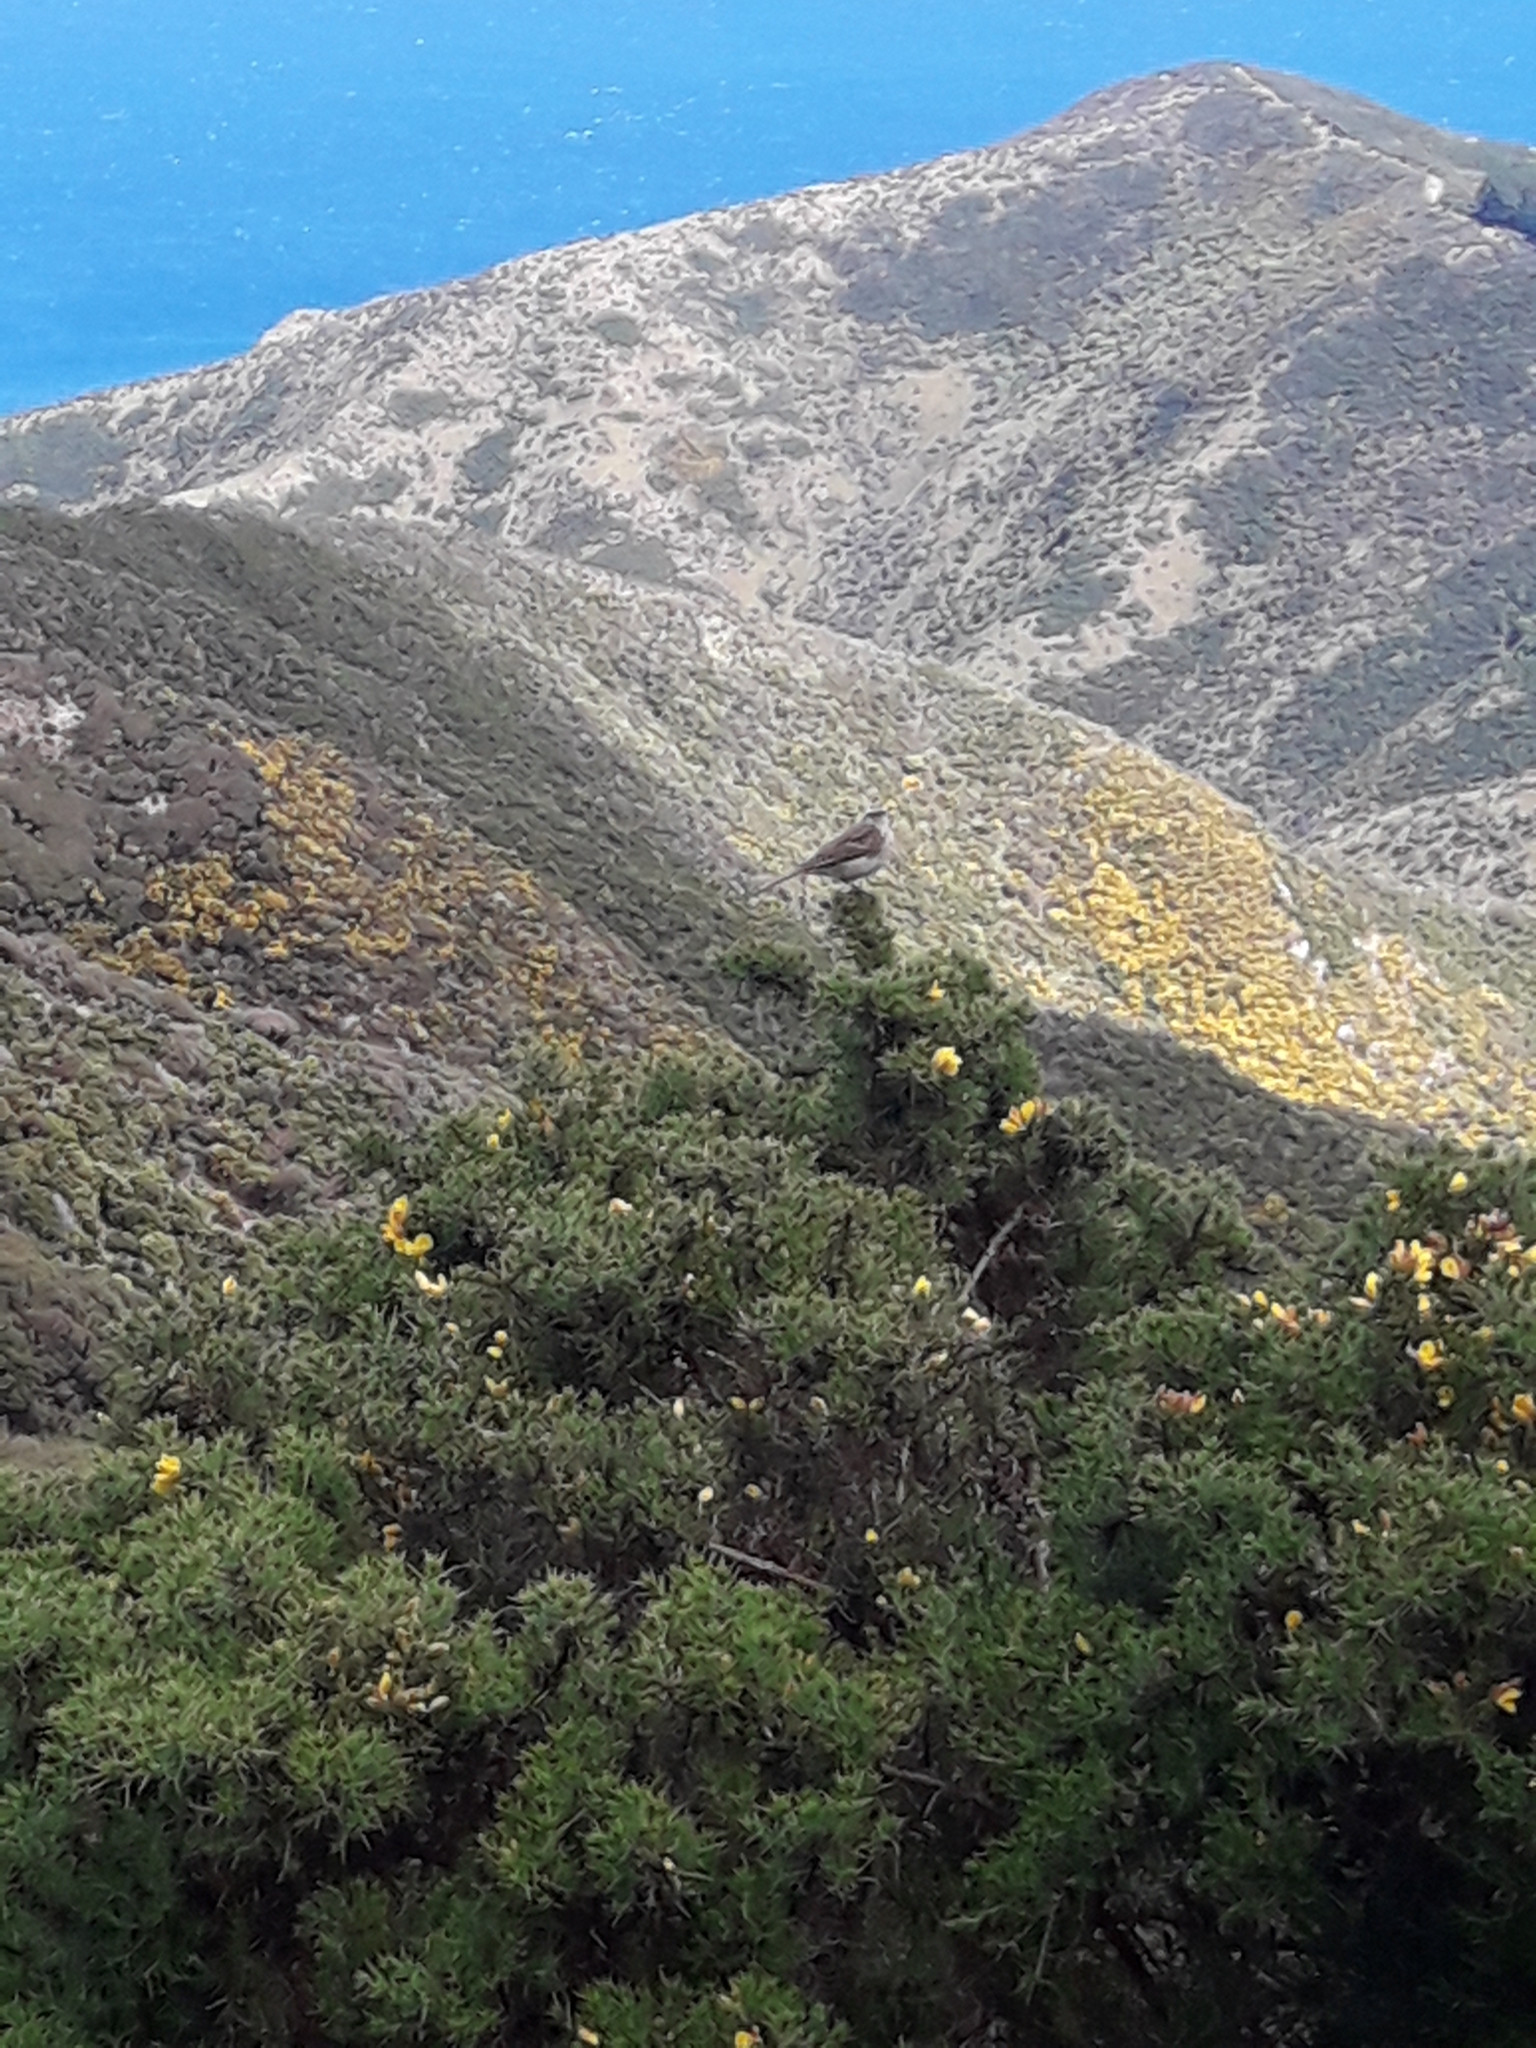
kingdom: Animalia
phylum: Chordata
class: Aves
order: Passeriformes
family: Motacillidae
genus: Anthus
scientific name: Anthus novaeseelandiae
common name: New zealand pipit
